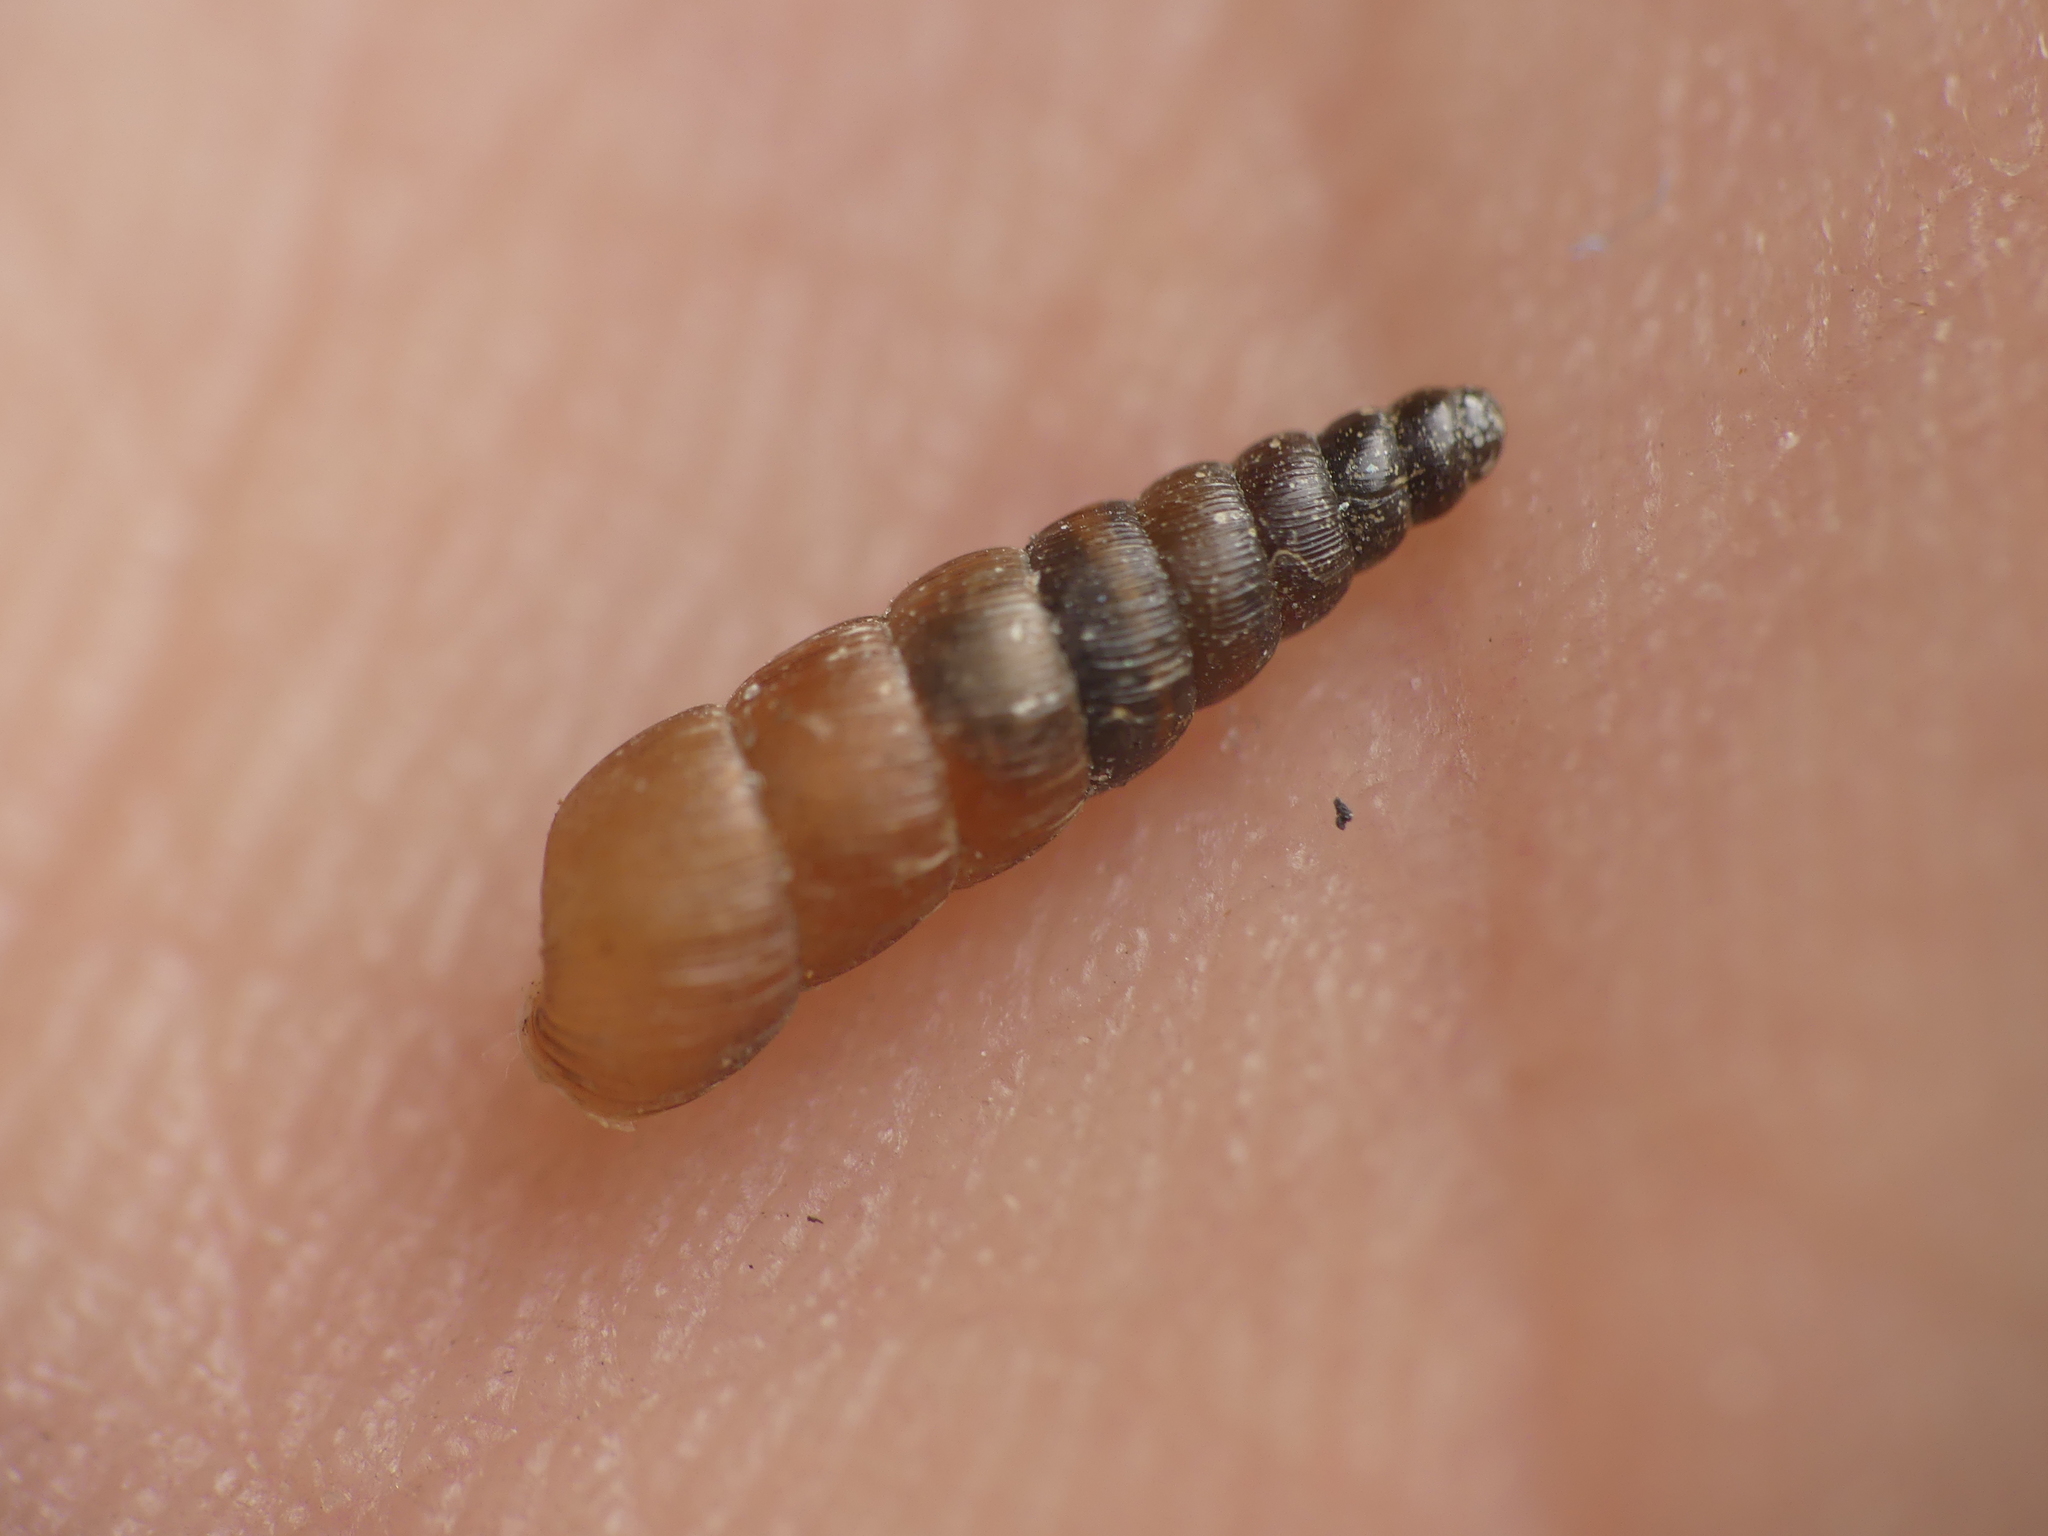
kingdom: Animalia
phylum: Mollusca
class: Gastropoda
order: Stylommatophora
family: Clausiliidae
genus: Balea
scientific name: Balea perversa
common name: Tree snail
